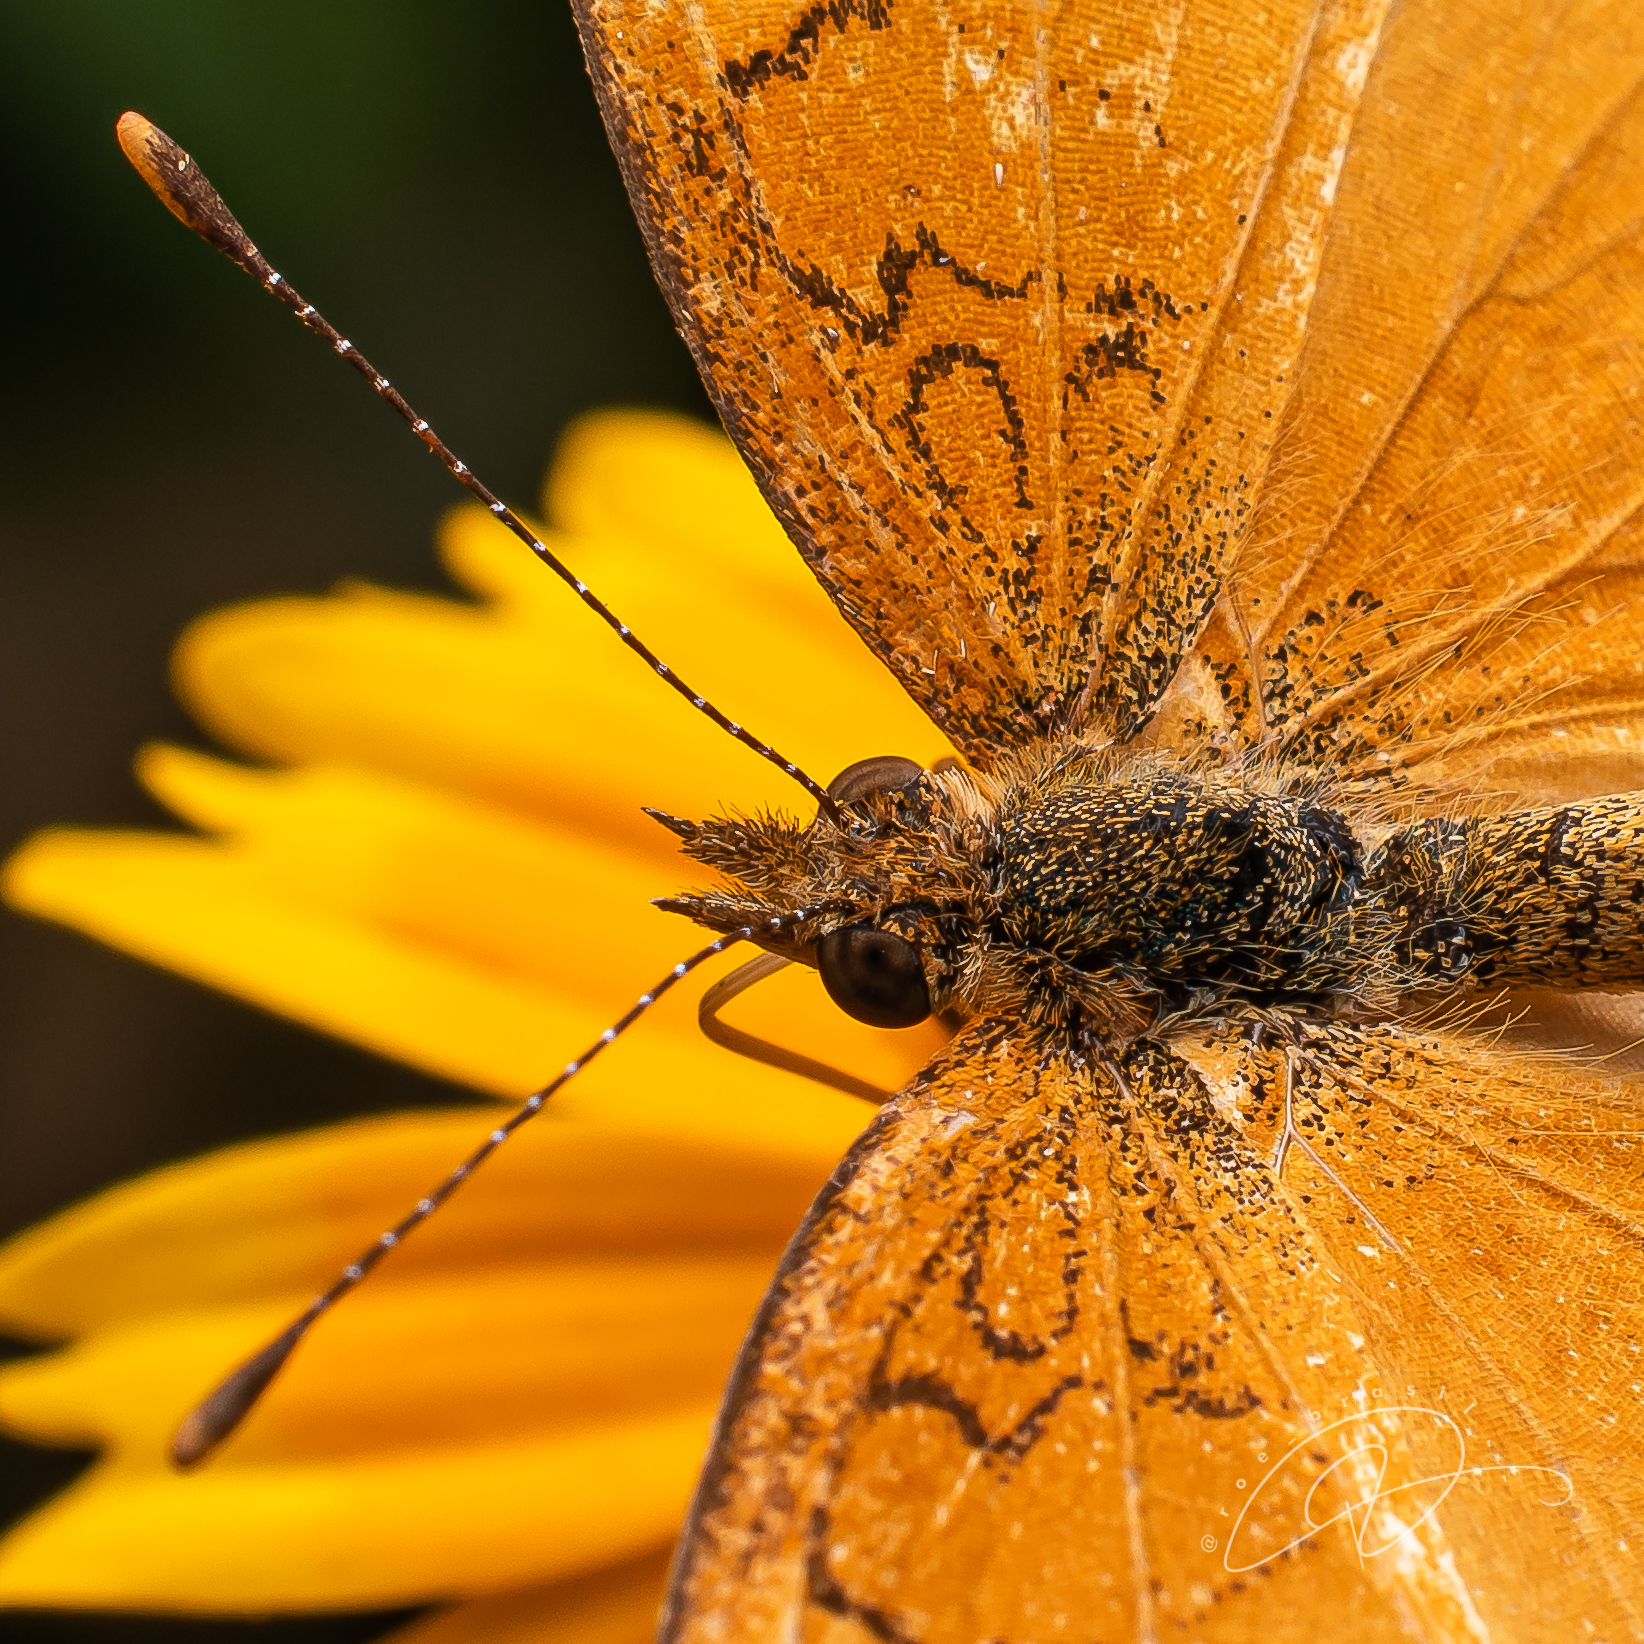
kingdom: Animalia
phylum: Arthropoda
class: Insecta
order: Lepidoptera
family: Nymphalidae
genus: Tegosa
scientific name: Tegosa claudina
